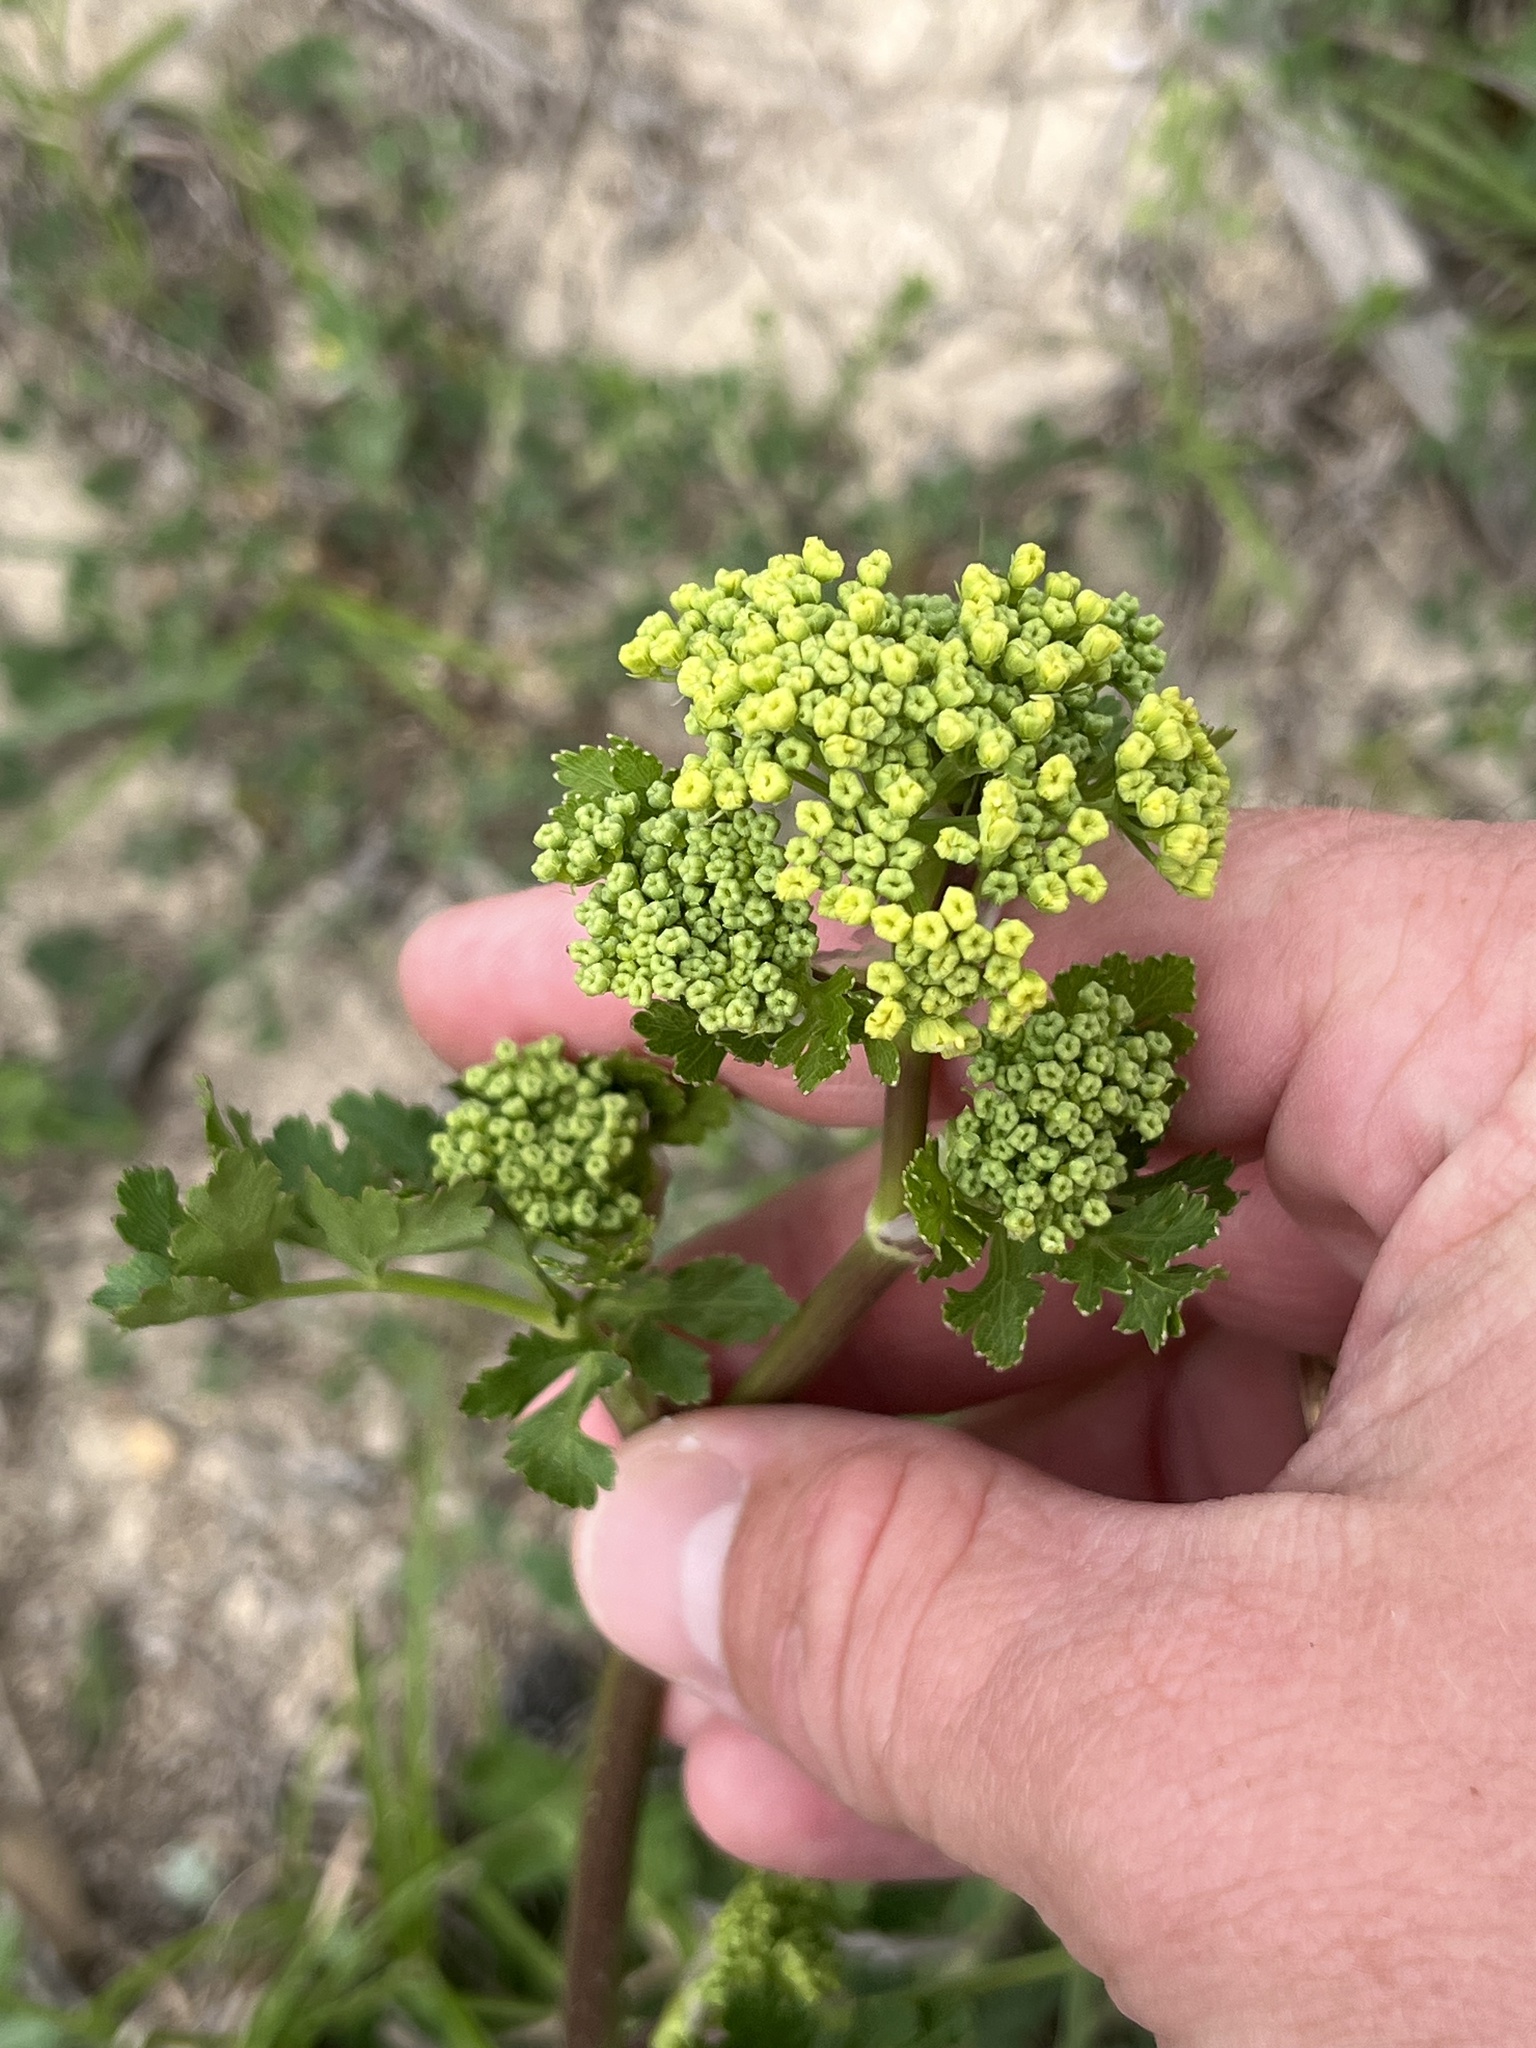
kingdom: Plantae
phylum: Tracheophyta
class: Magnoliopsida
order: Apiales
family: Apiaceae
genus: Polytaenia
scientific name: Polytaenia texana
